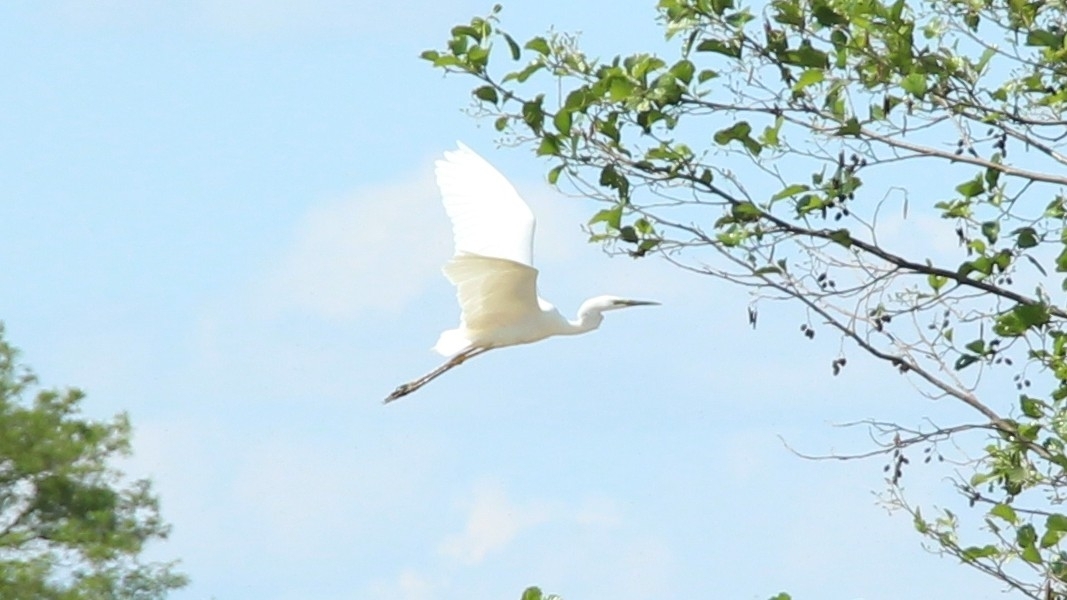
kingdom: Animalia
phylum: Chordata
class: Aves
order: Pelecaniformes
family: Ardeidae
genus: Ardea
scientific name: Ardea alba
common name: Great egret
